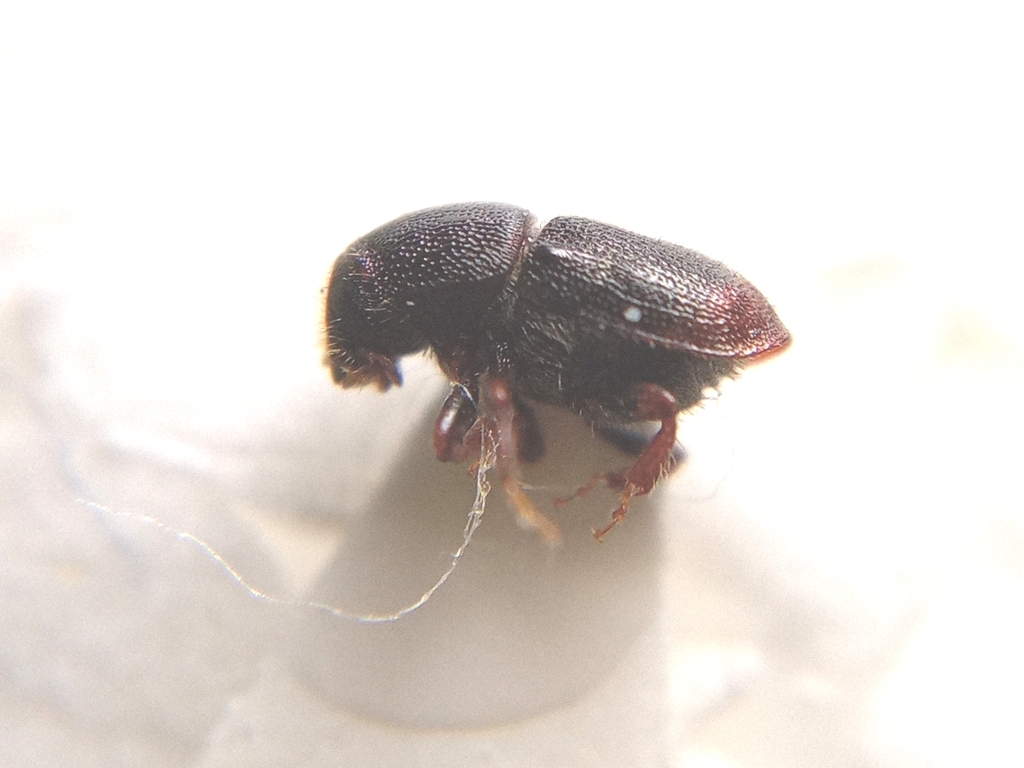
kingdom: Animalia
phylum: Arthropoda
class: Insecta
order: Coleoptera
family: Curculionidae
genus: Scolytus
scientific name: Scolytus rugulosus
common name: Fruit bark beetle
